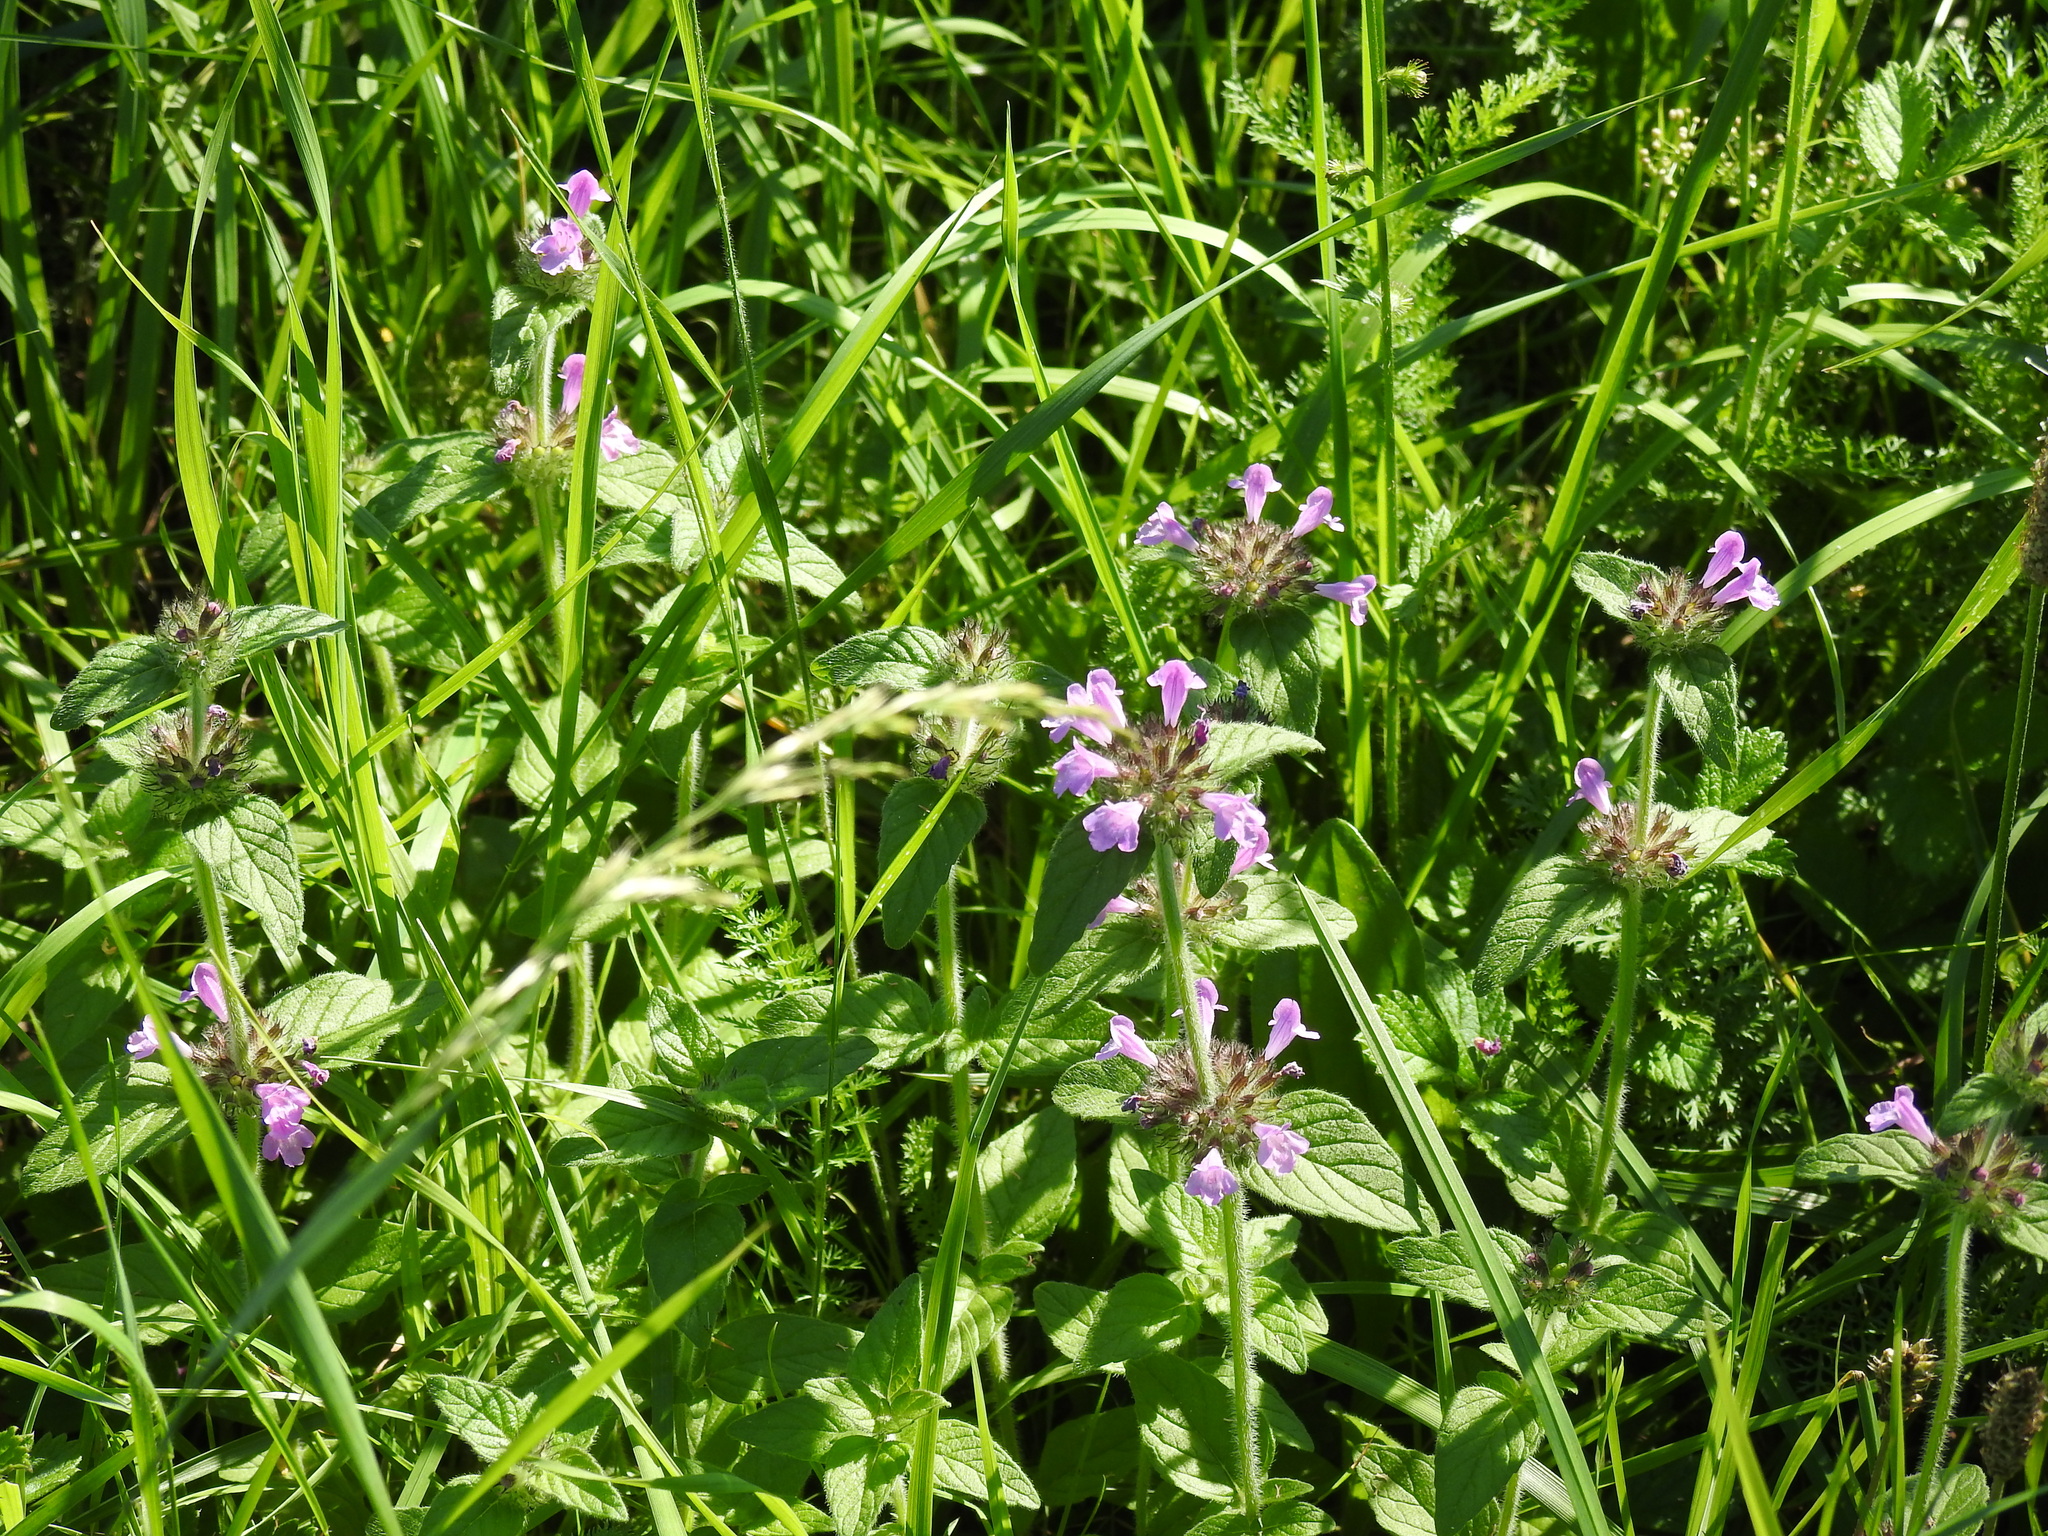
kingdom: Plantae
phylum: Tracheophyta
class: Magnoliopsida
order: Lamiales
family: Lamiaceae
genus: Ballota
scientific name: Ballota nigra
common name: Black horehound
